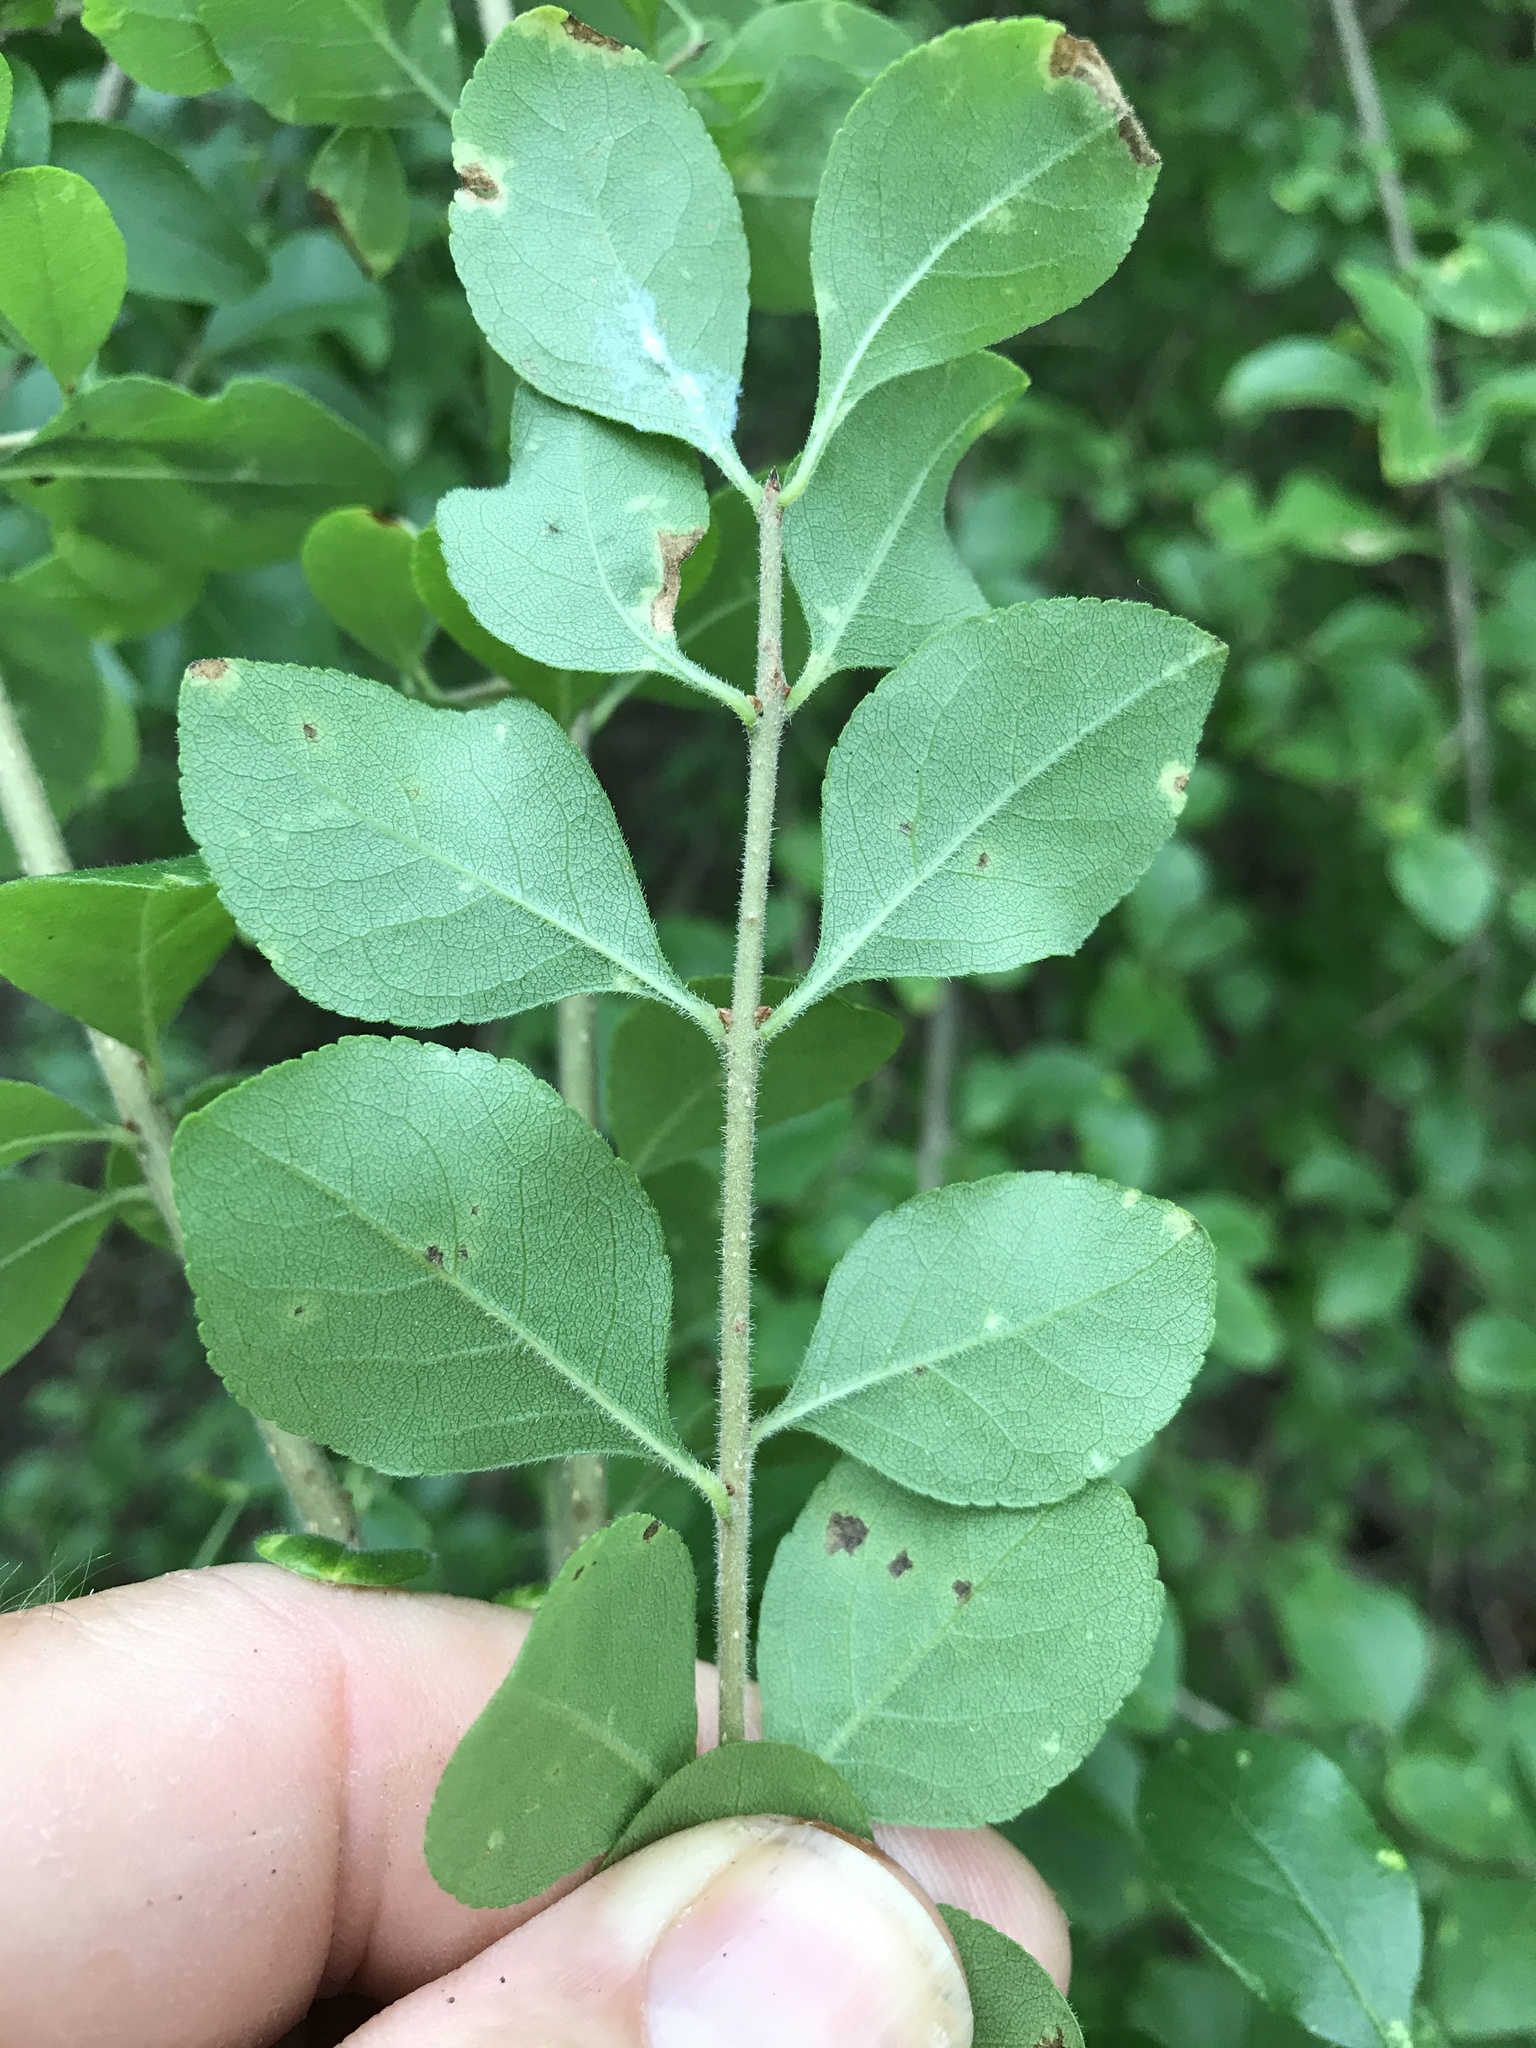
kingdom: Plantae
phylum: Tracheophyta
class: Magnoliopsida
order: Lamiales
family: Oleaceae
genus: Forestiera
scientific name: Forestiera pubescens
